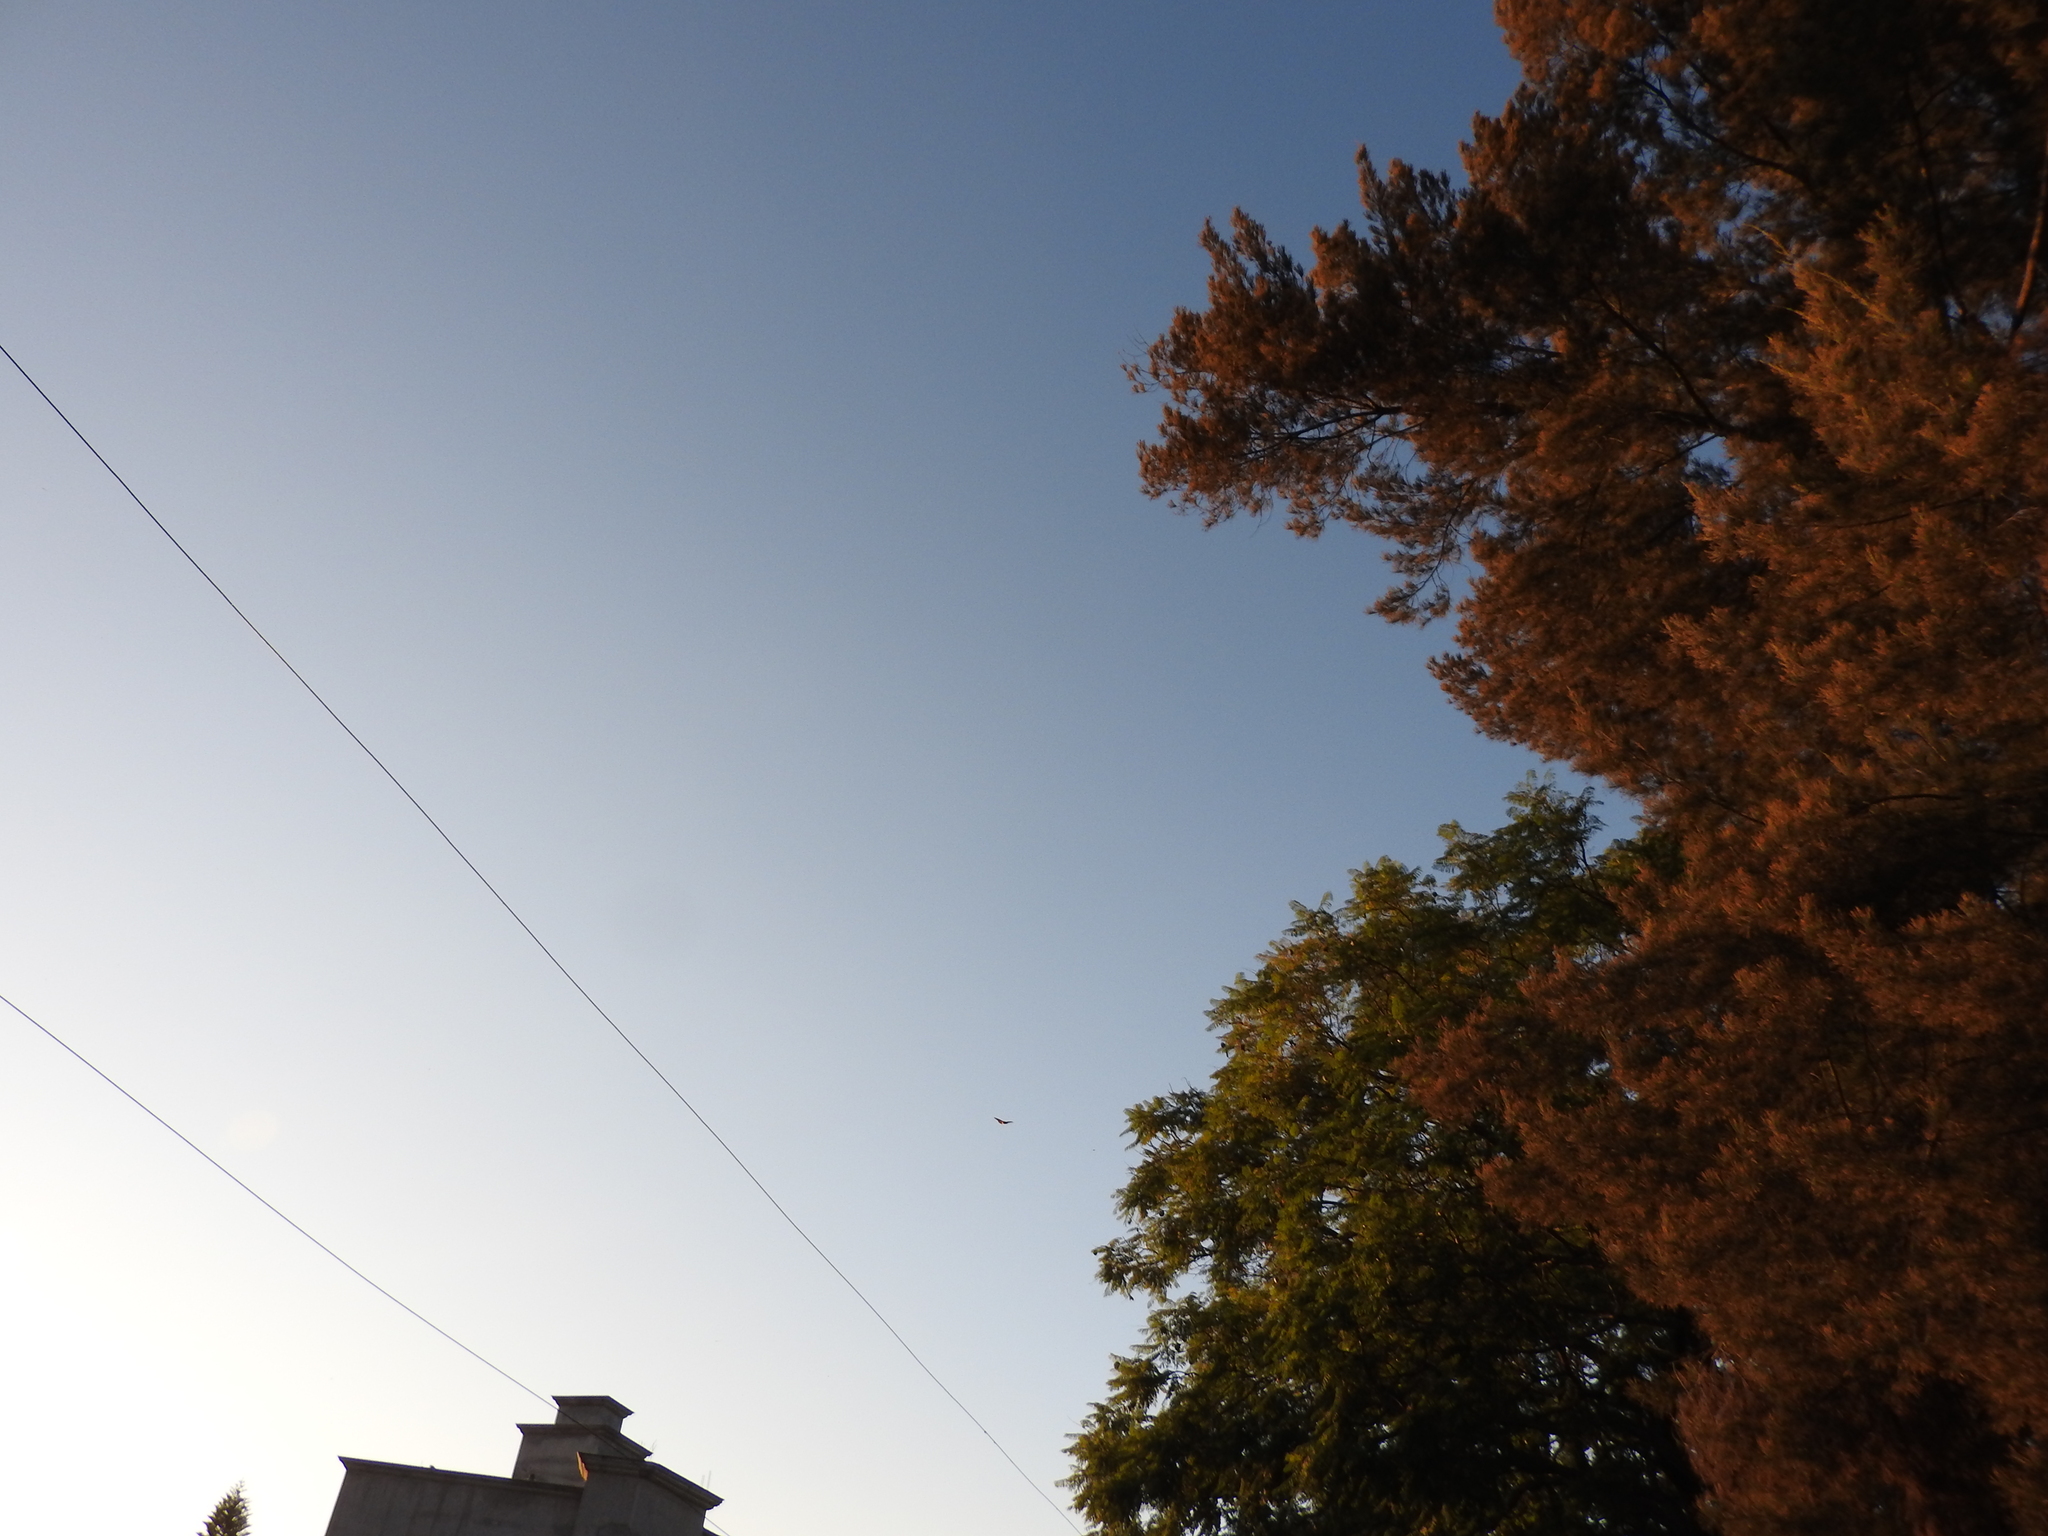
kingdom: Animalia
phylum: Arthropoda
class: Insecta
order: Lepidoptera
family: Nymphalidae
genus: Danaus
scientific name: Danaus plexippus
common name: Monarch
